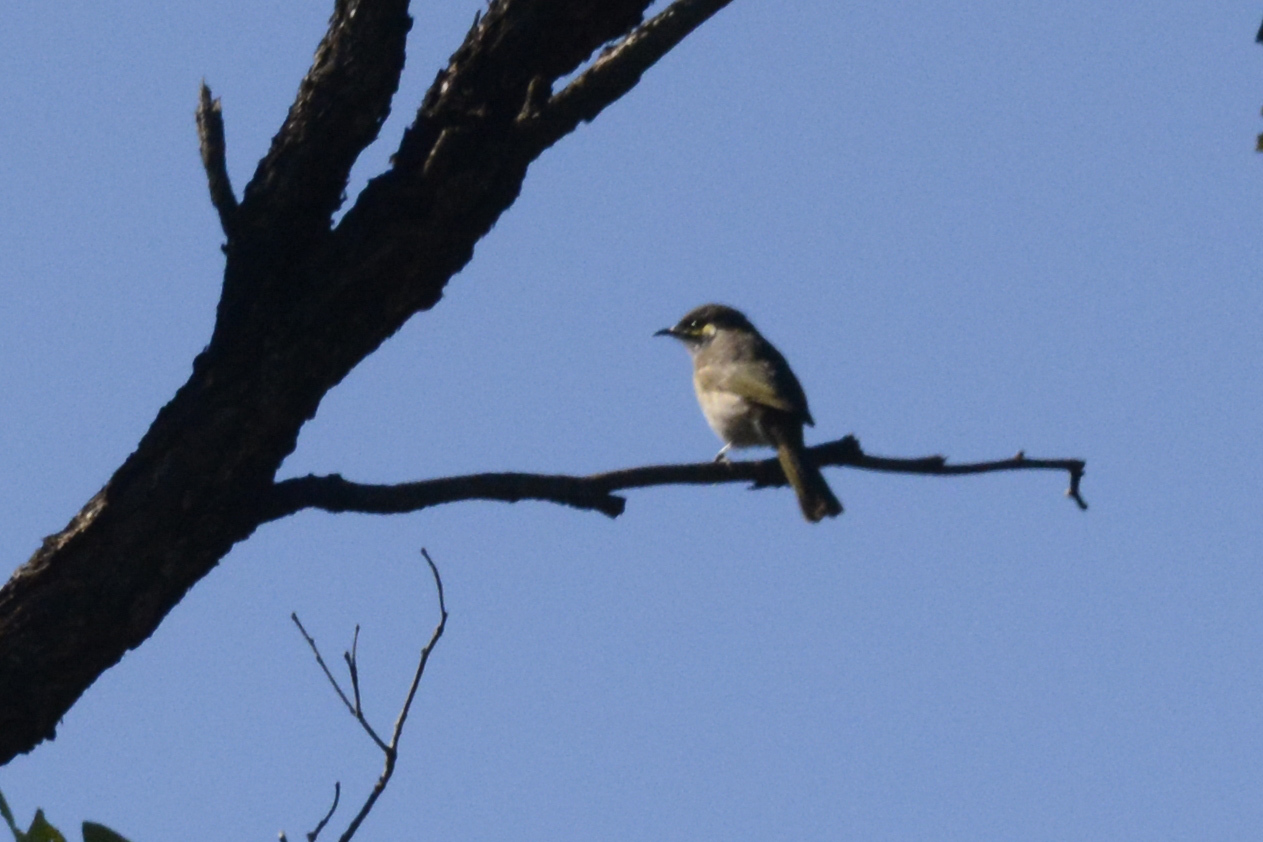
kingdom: Animalia
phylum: Chordata
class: Aves
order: Passeriformes
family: Meliphagidae
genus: Caligavis
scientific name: Caligavis chrysops
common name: Yellow-faced honeyeater
